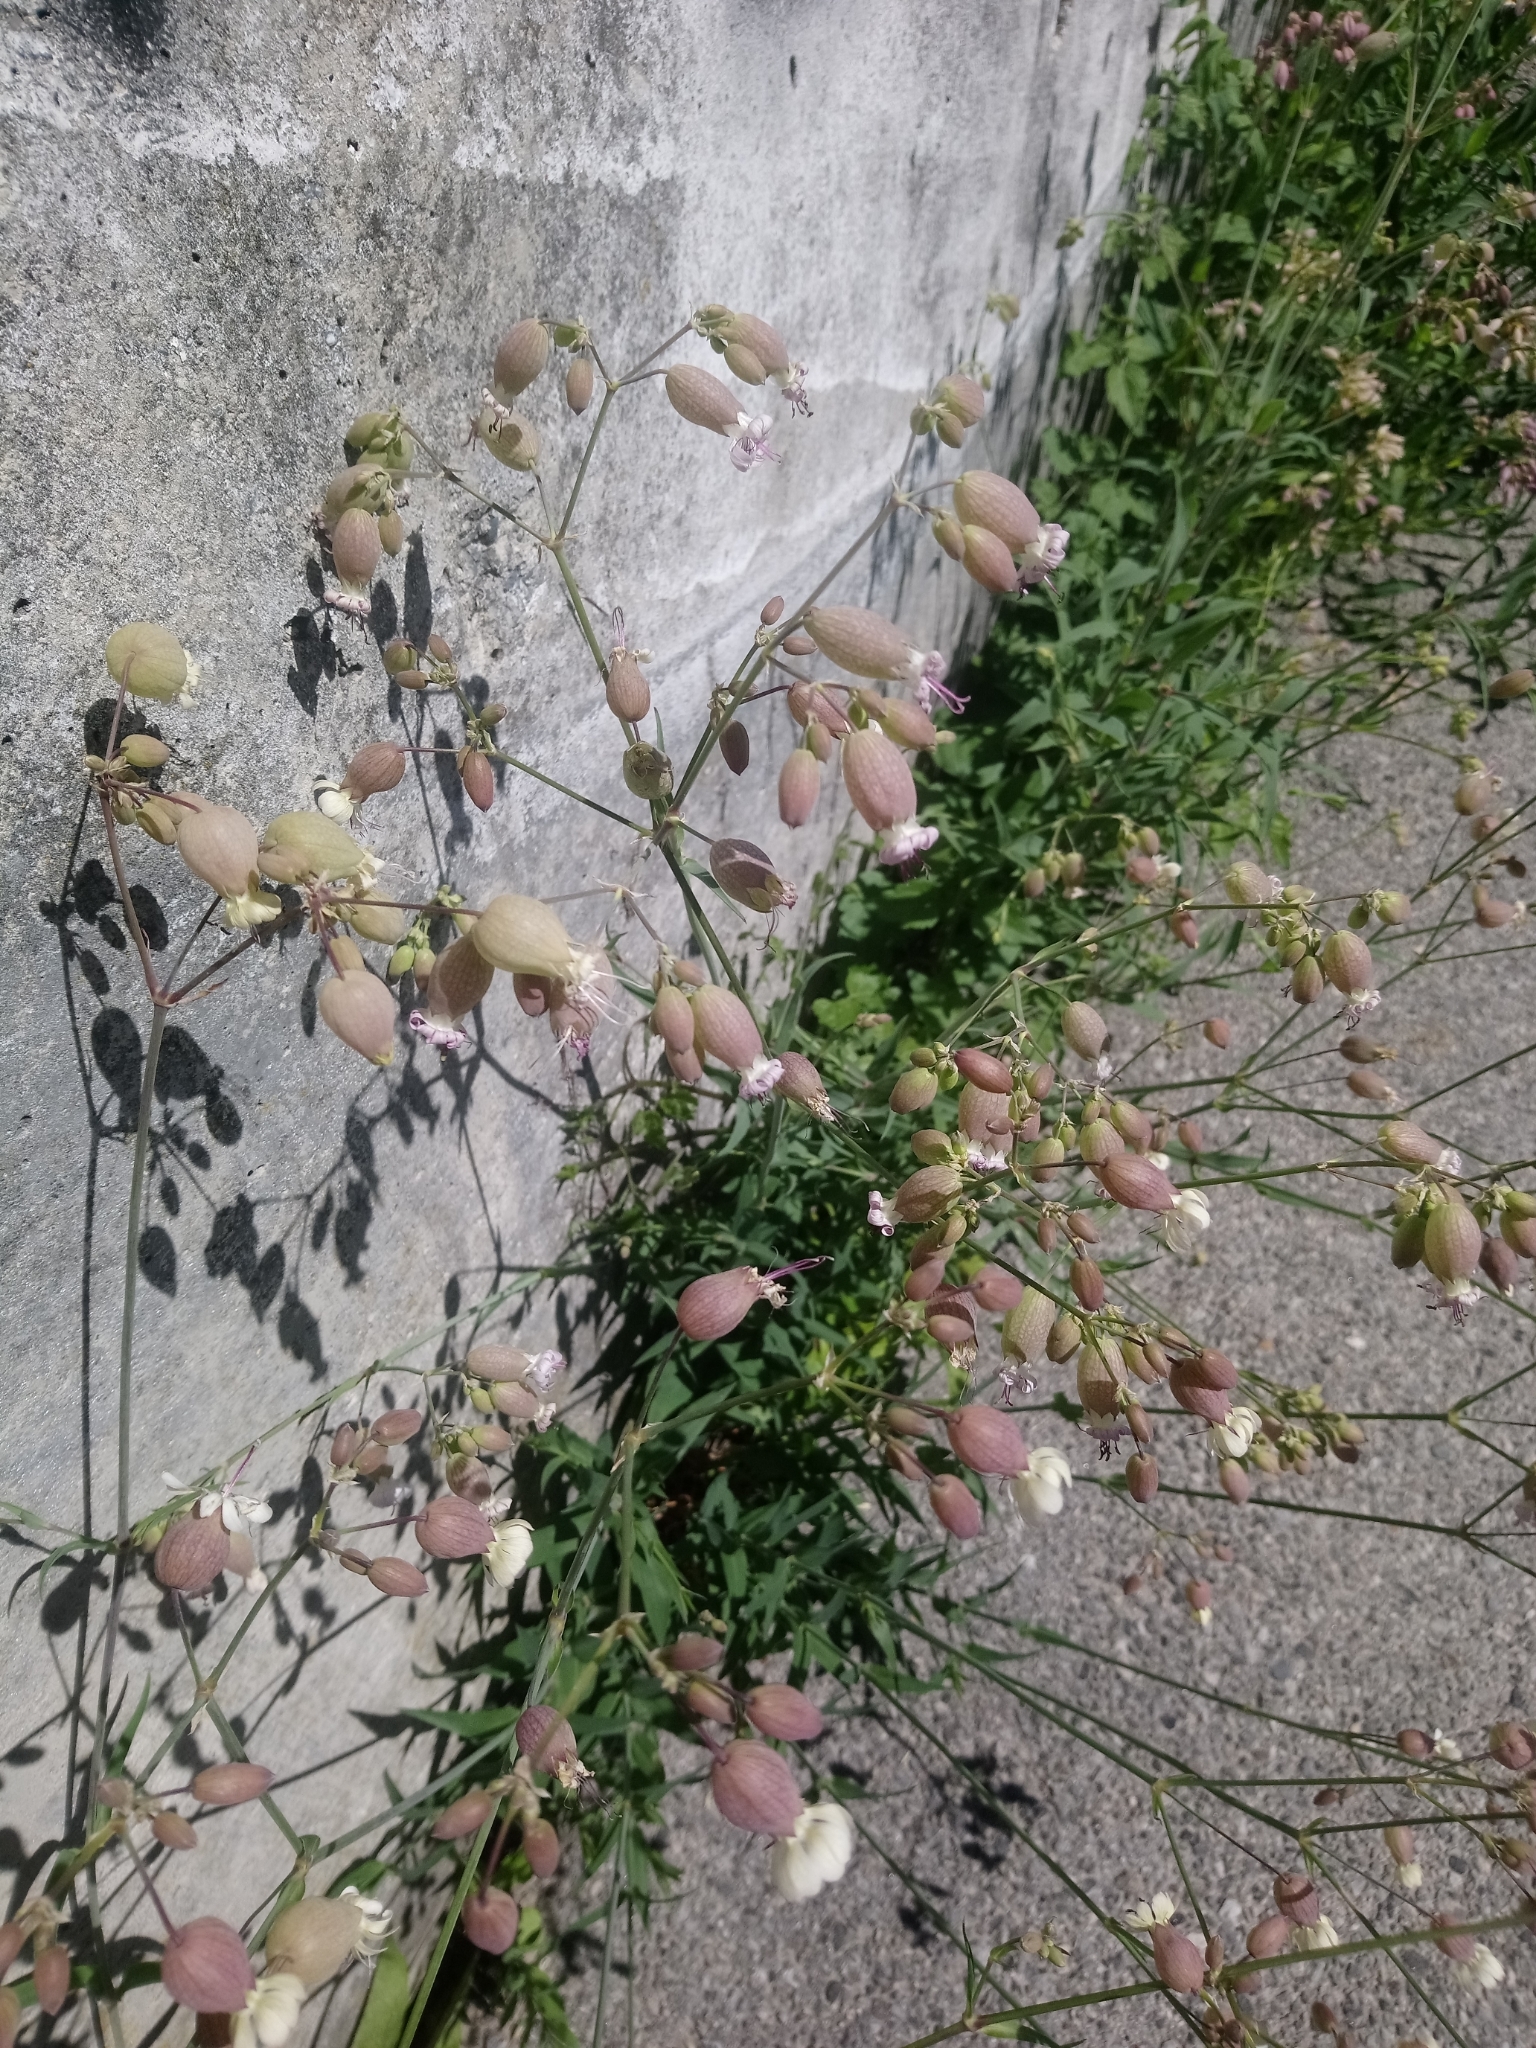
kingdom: Plantae
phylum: Tracheophyta
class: Magnoliopsida
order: Caryophyllales
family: Caryophyllaceae
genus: Silene
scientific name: Silene vulgaris
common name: Bladder campion
